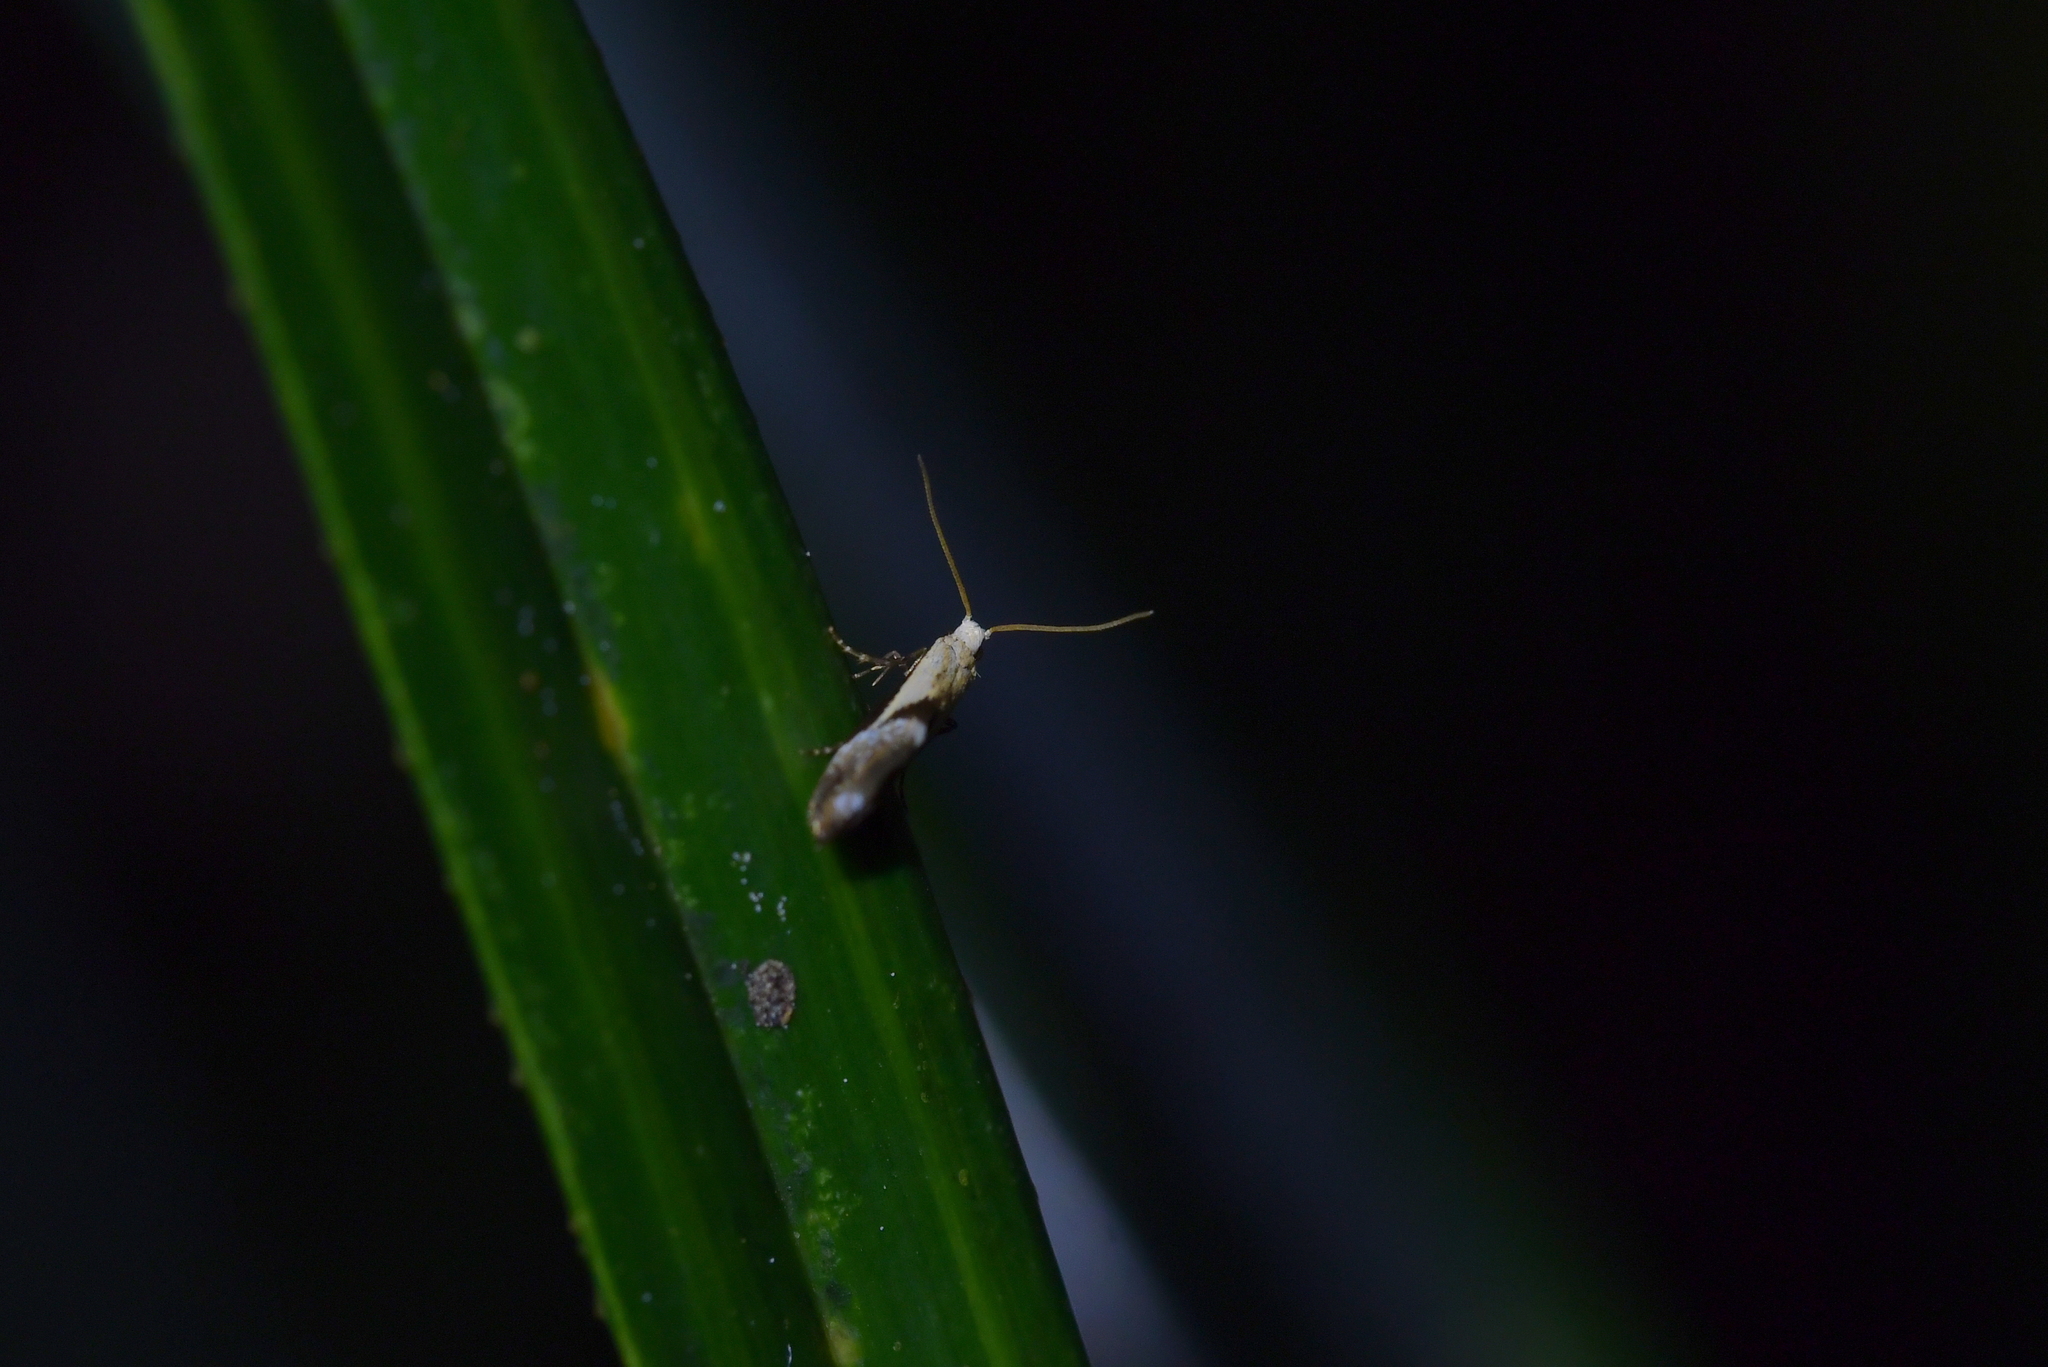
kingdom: Animalia
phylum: Arthropoda
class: Insecta
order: Lepidoptera
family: Mnesarchaeidae
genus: Mnesarchella
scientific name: Mnesarchella fusilella
